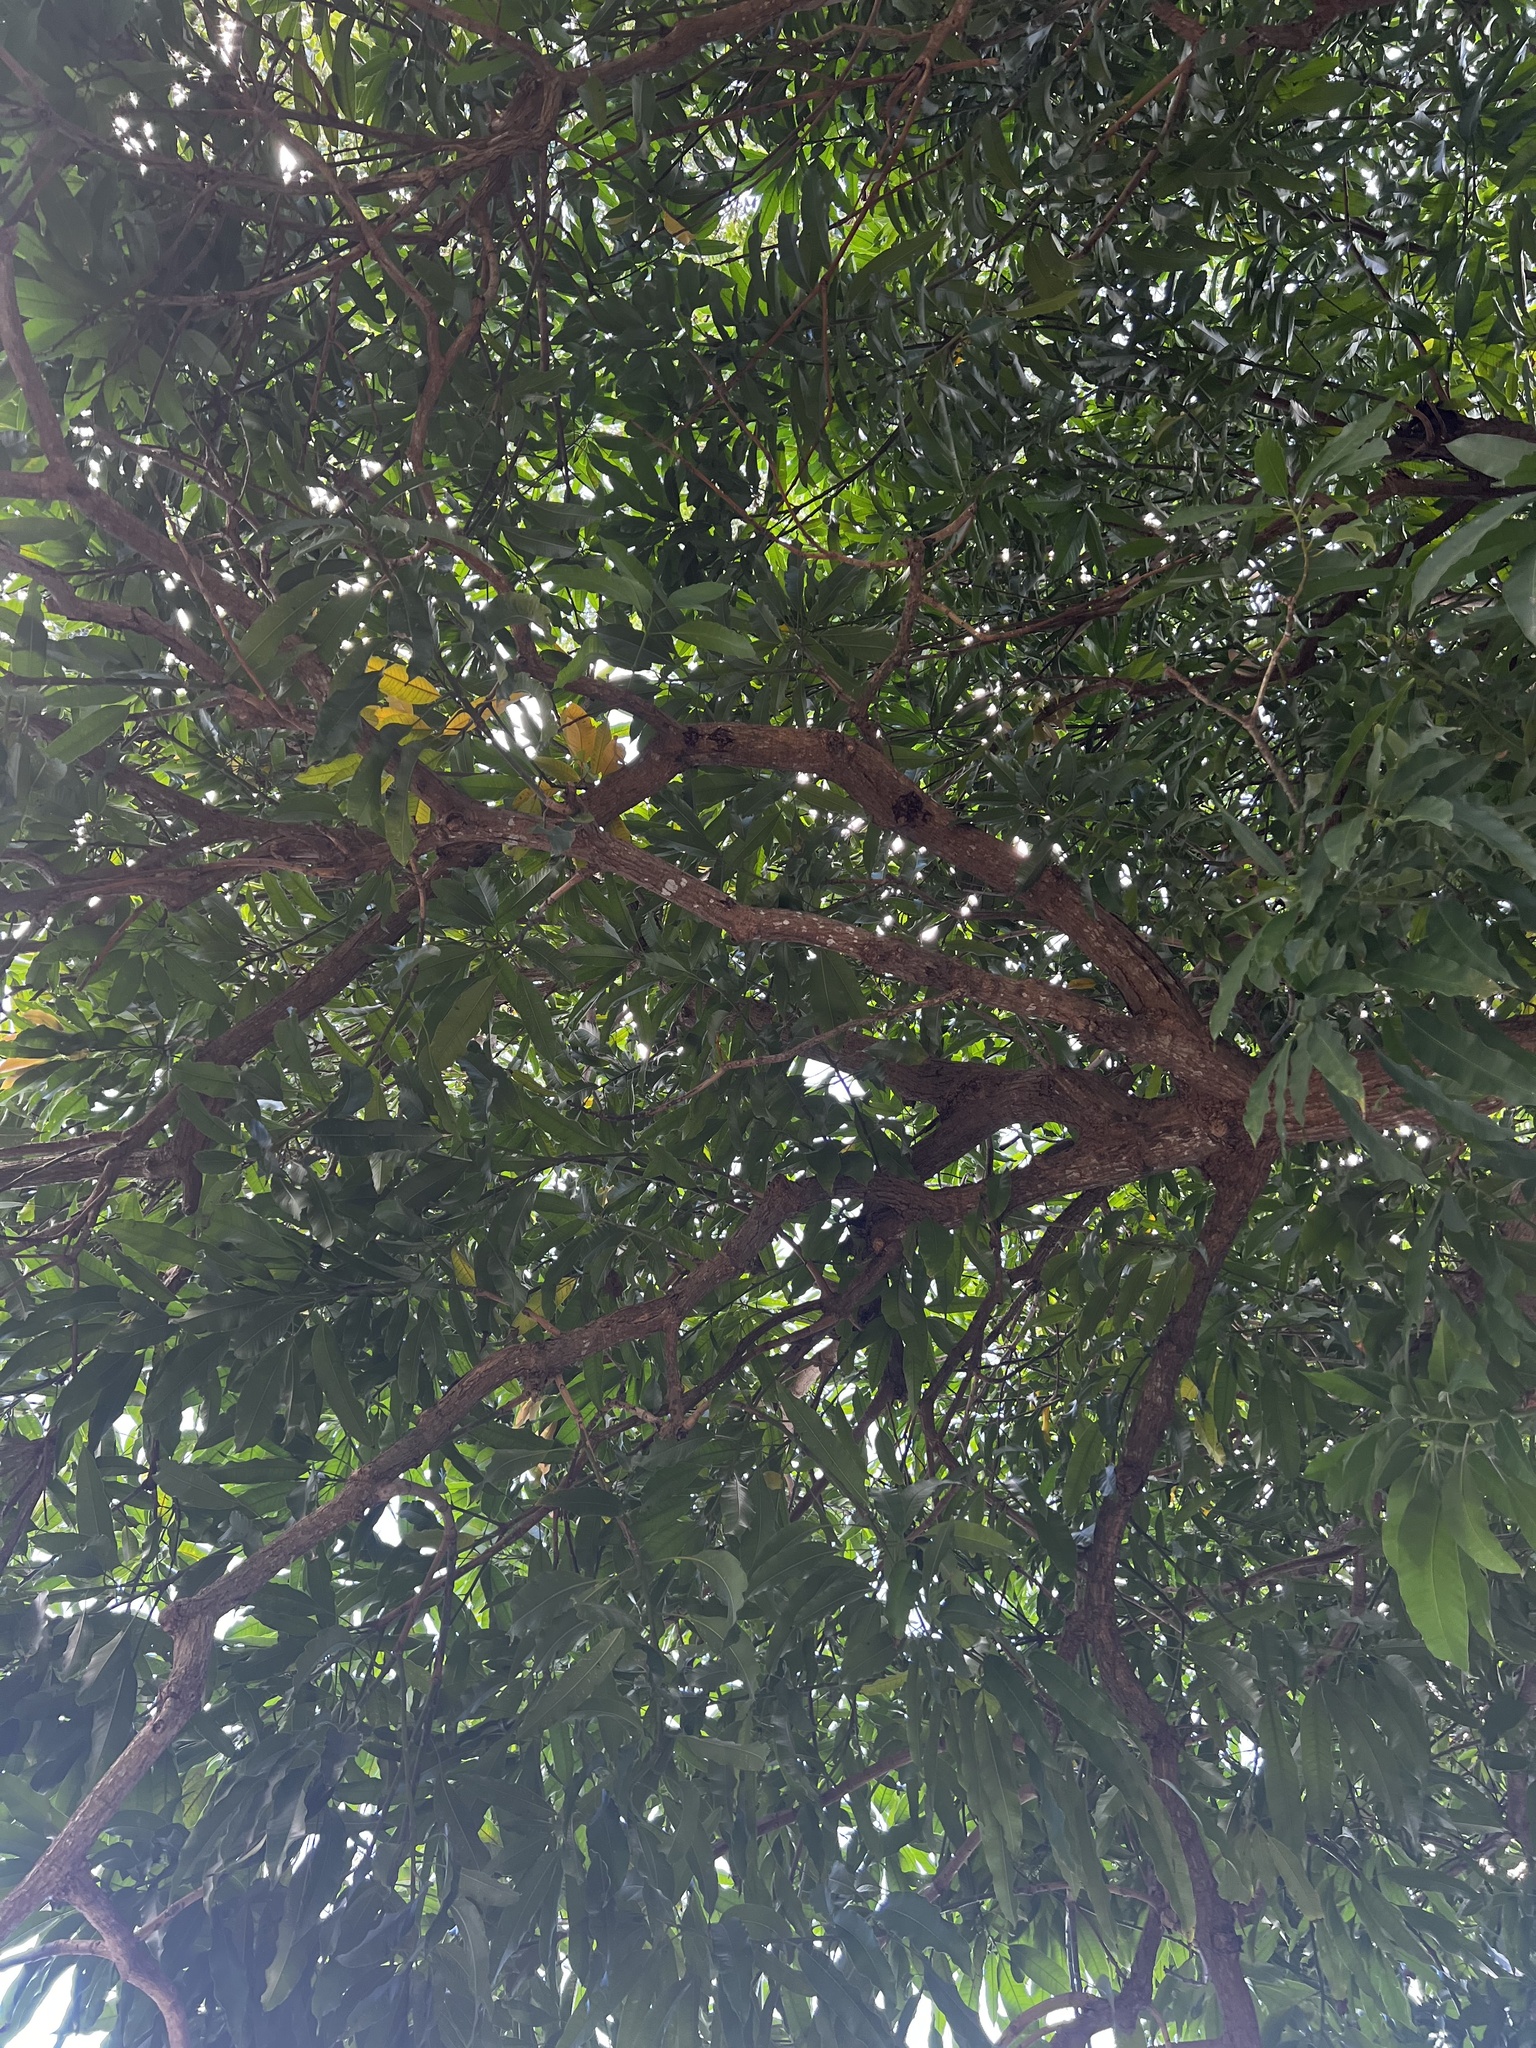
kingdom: Plantae
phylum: Tracheophyta
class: Magnoliopsida
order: Sapindales
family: Anacardiaceae
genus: Mangifera
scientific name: Mangifera indica
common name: Mango
